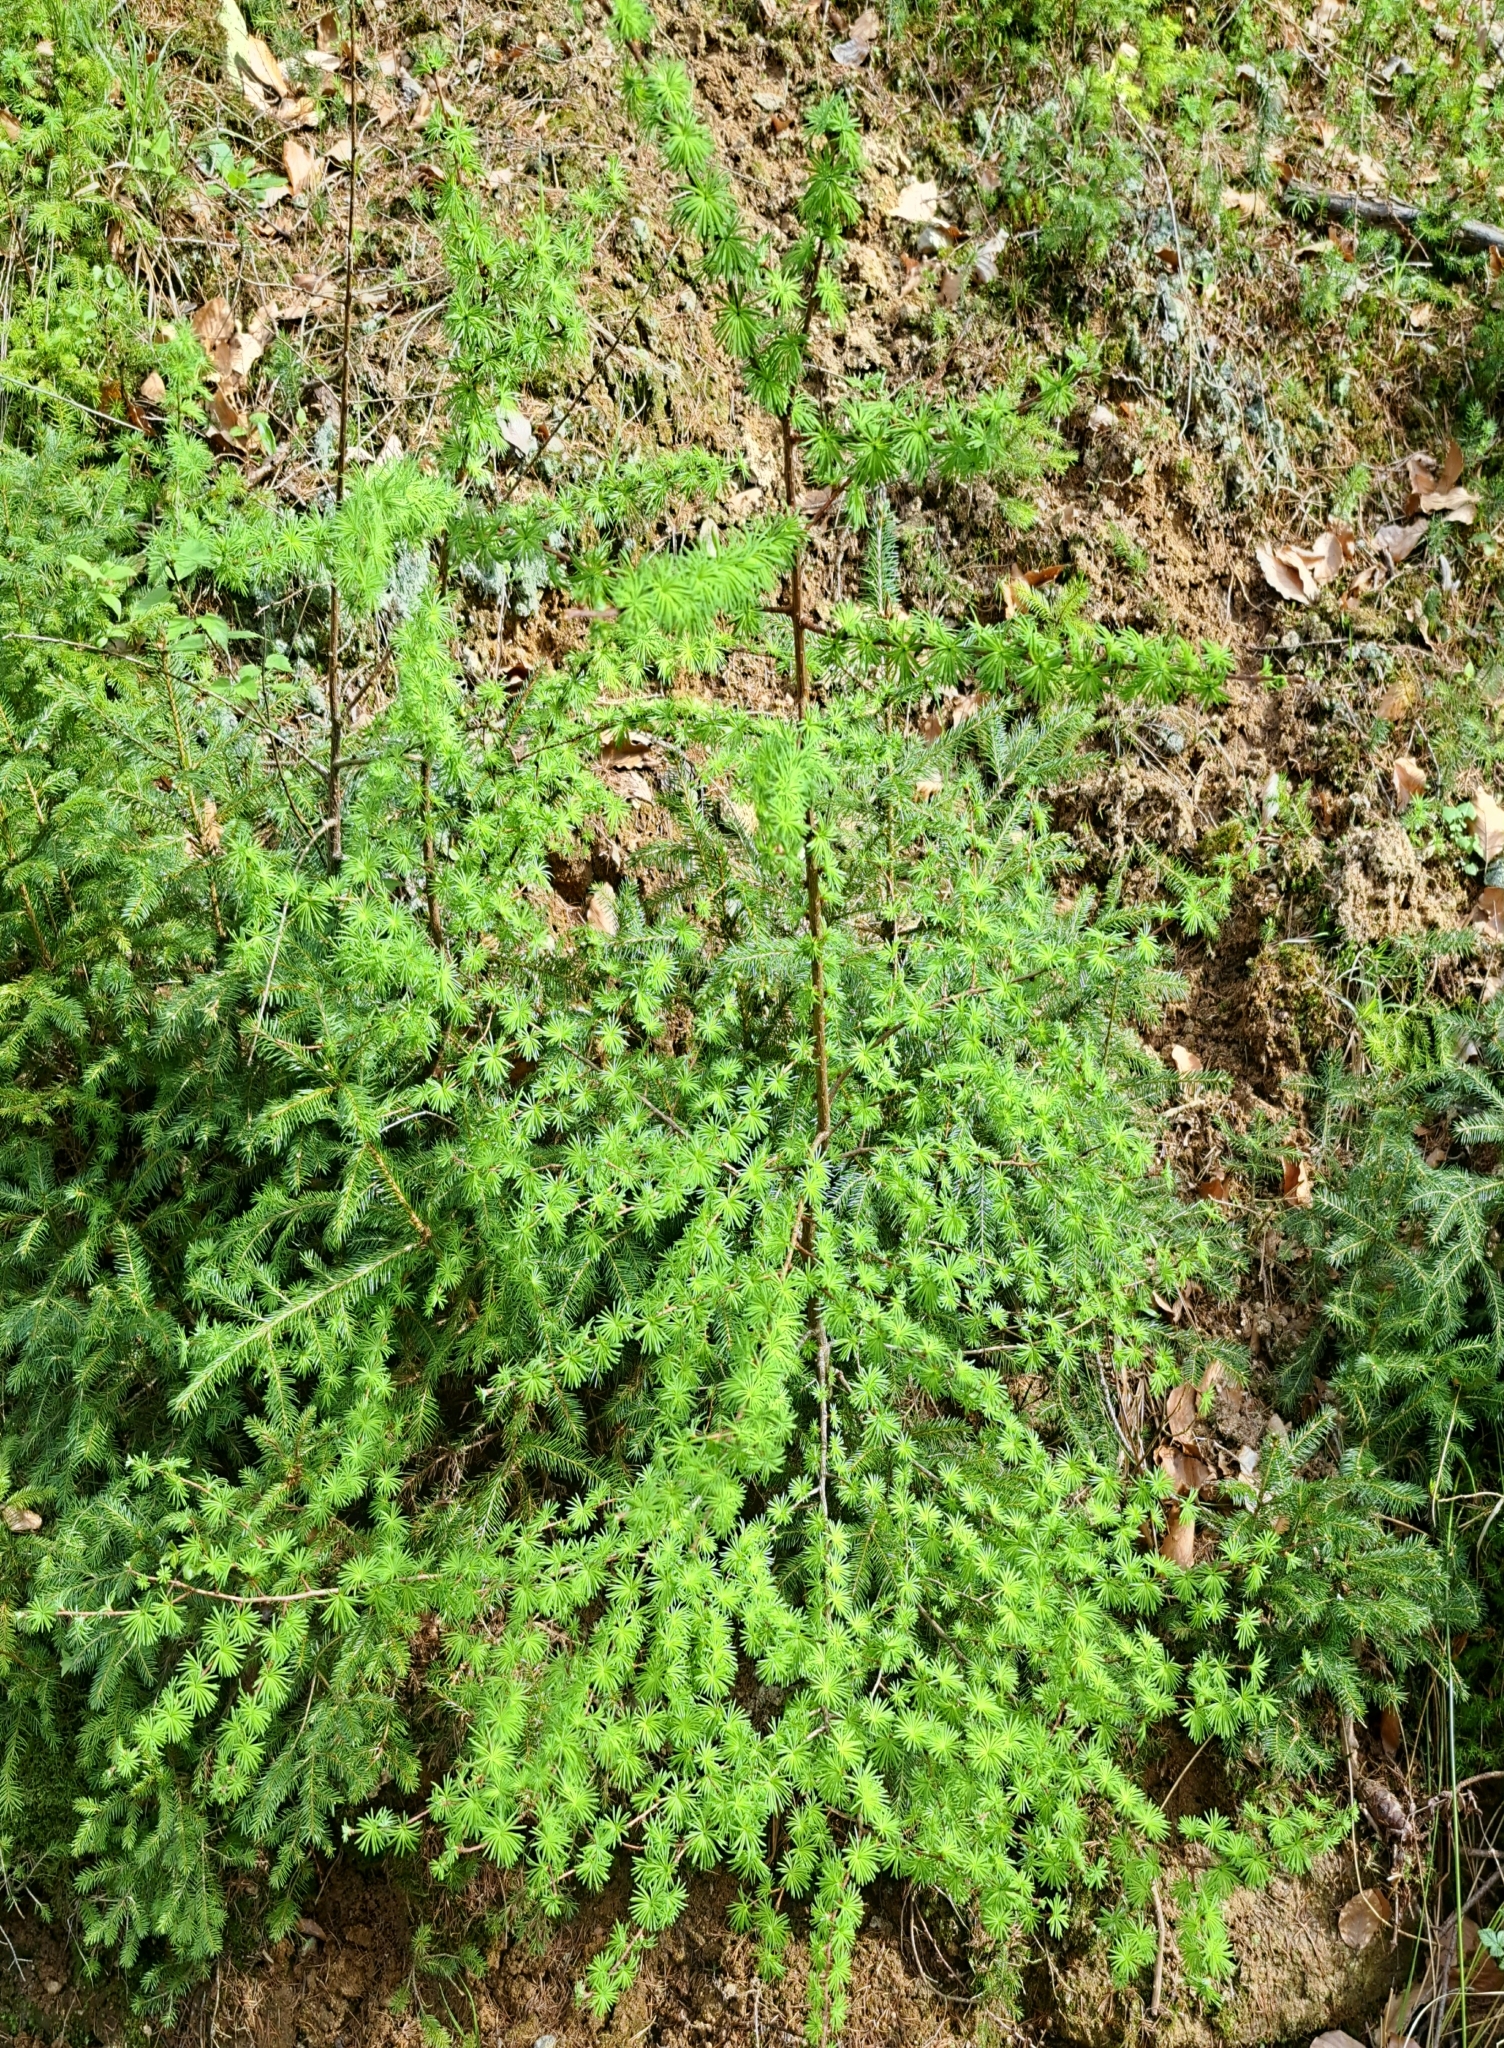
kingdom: Plantae
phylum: Tracheophyta
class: Pinopsida
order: Pinales
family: Pinaceae
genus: Larix
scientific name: Larix decidua
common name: European larch
